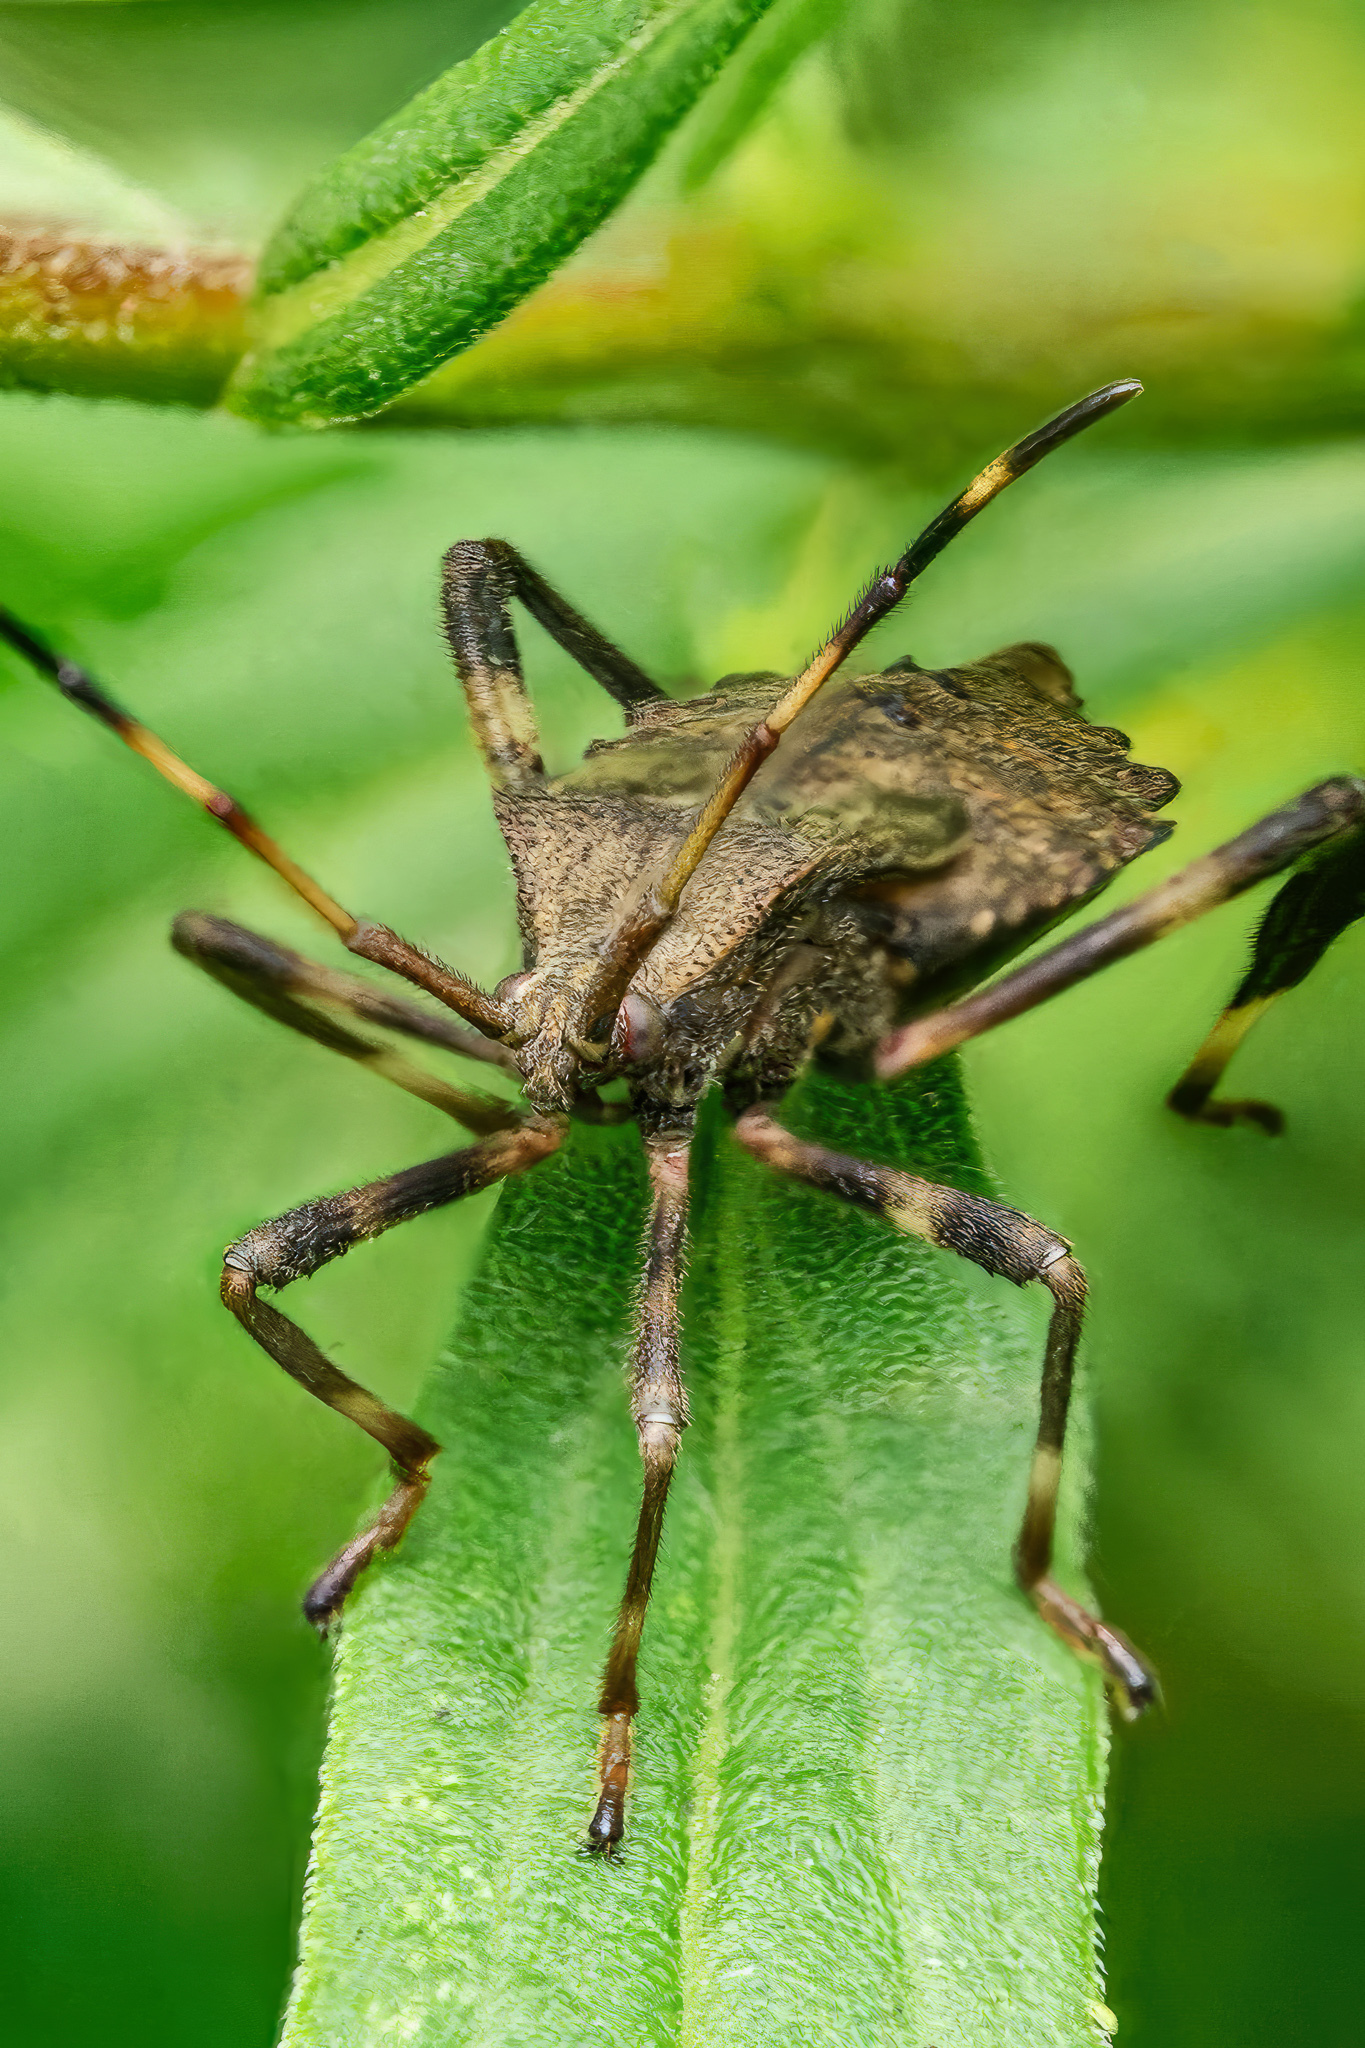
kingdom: Animalia
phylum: Arthropoda
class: Insecta
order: Hemiptera
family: Coreidae
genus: Acanthocephala
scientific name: Acanthocephala terminalis
